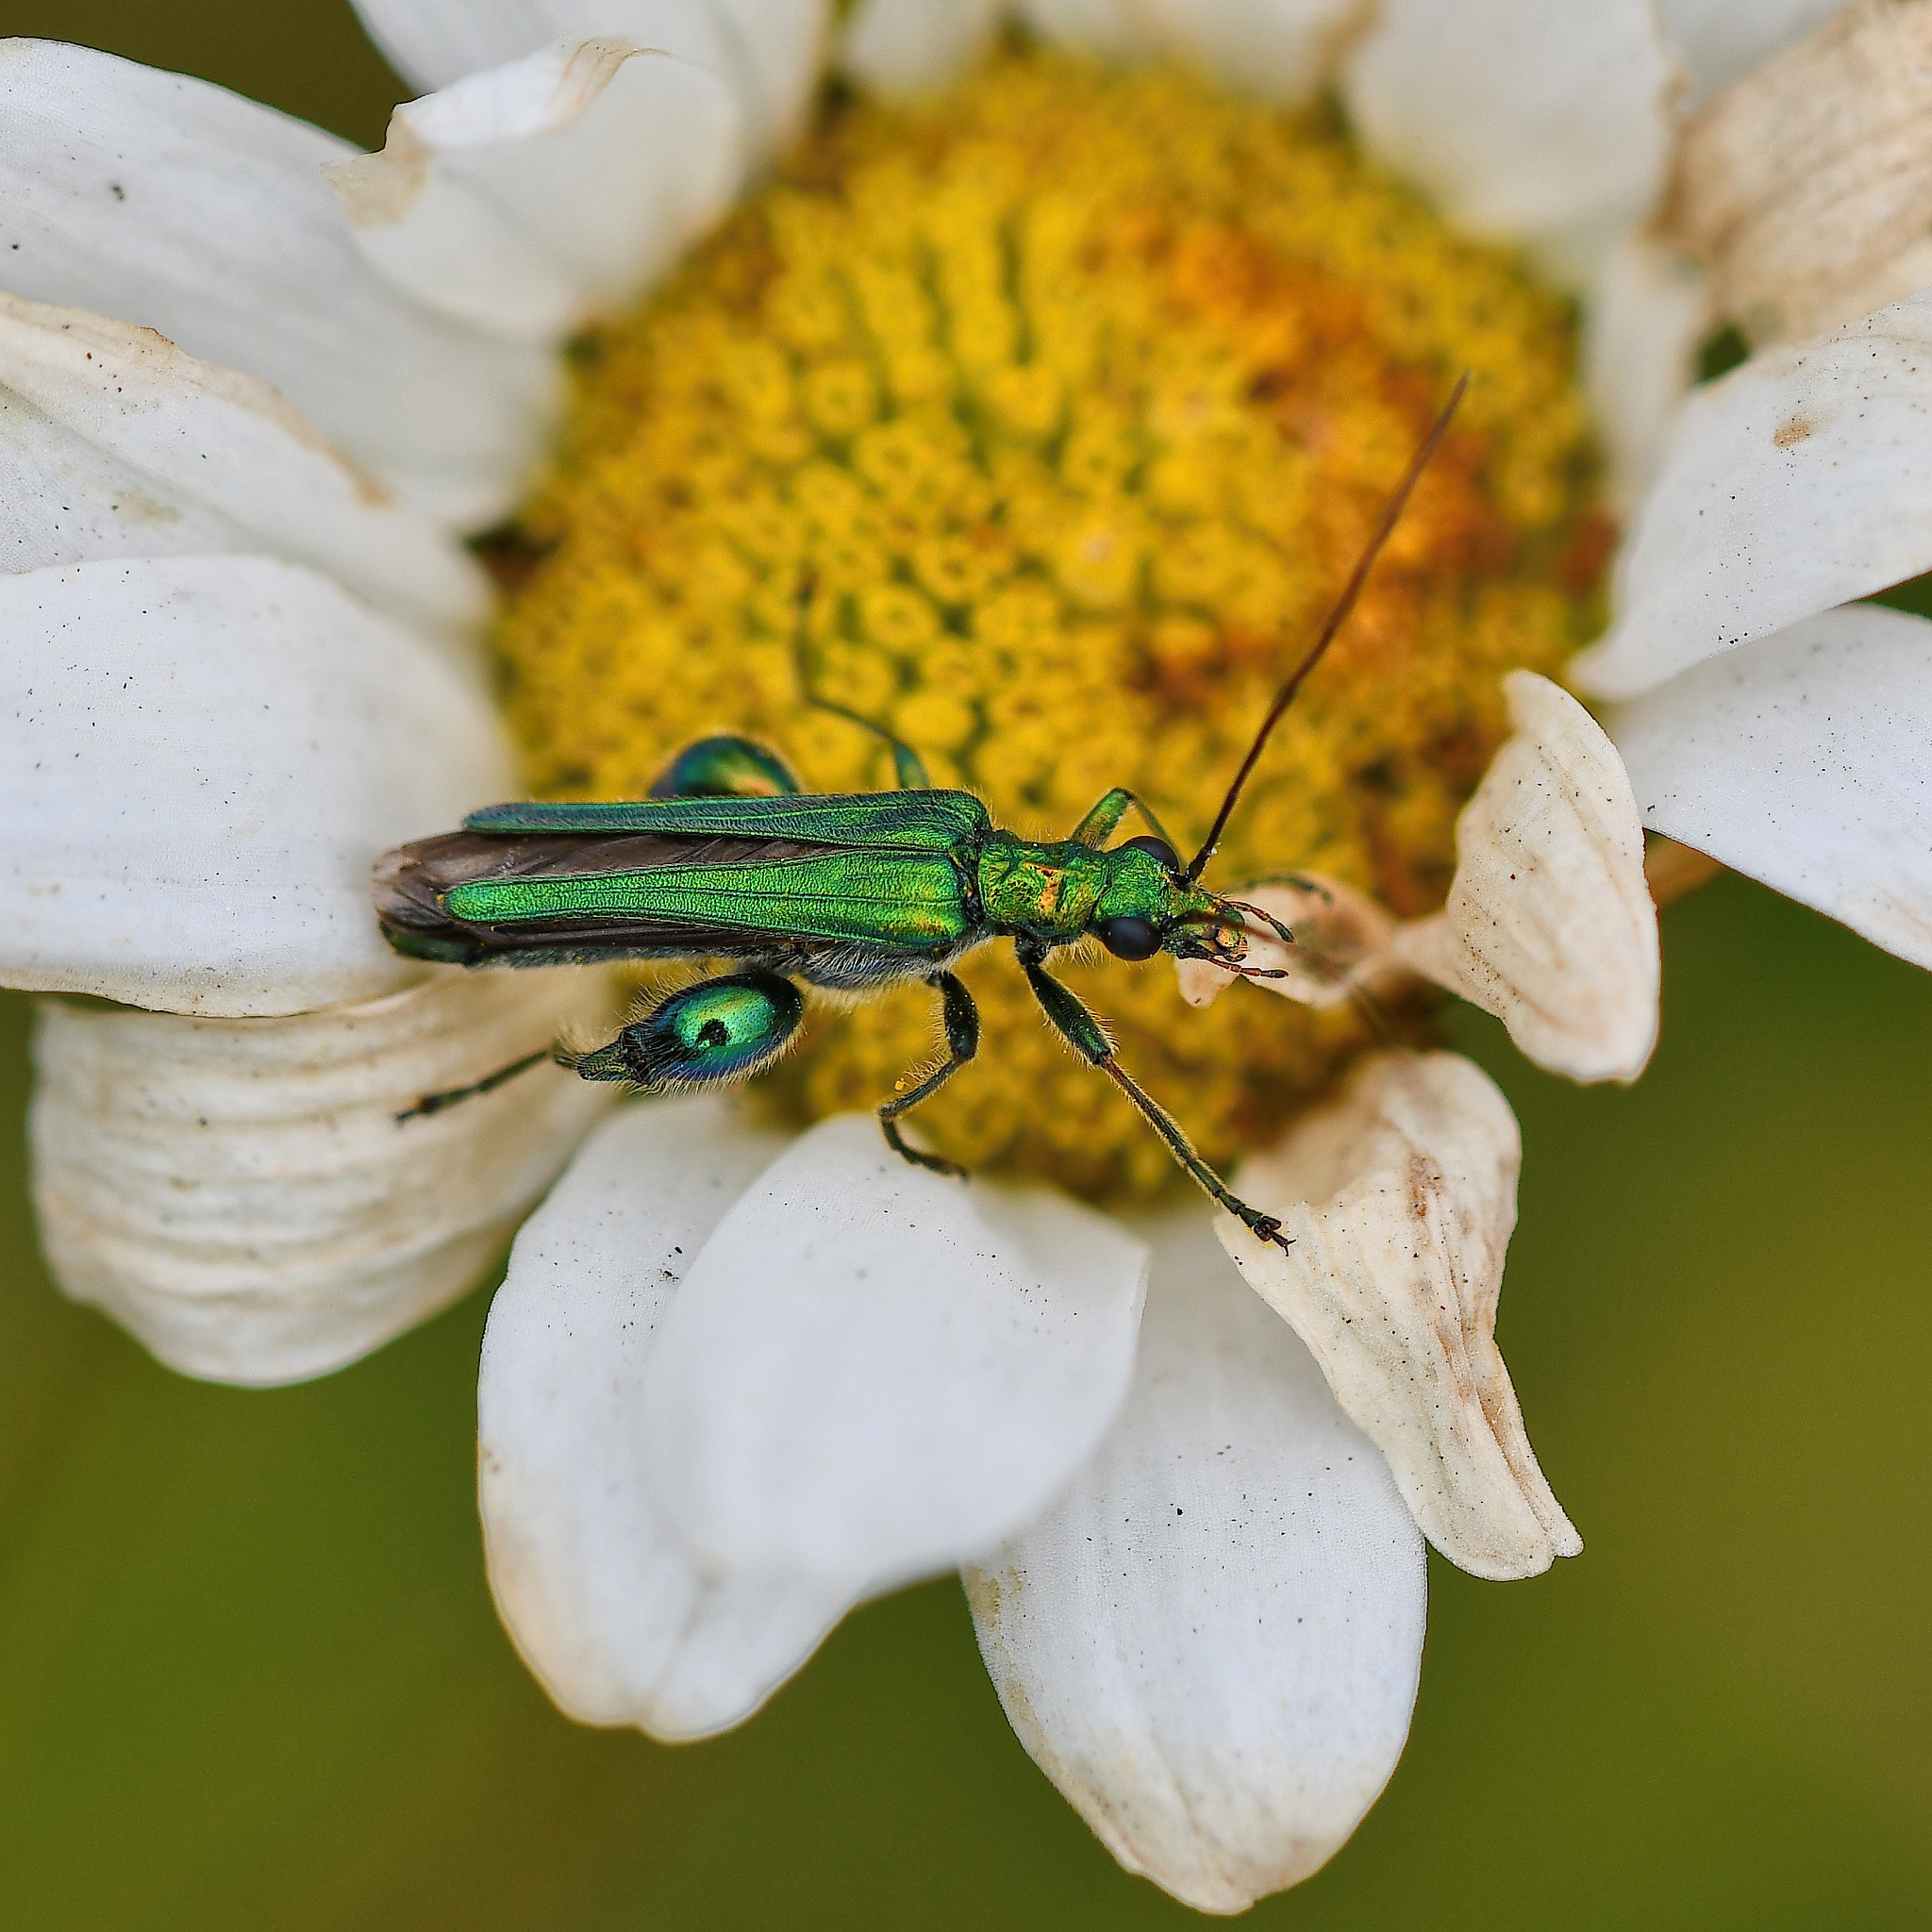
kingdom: Animalia
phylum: Arthropoda
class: Insecta
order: Coleoptera
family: Oedemeridae
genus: Oedemera
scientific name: Oedemera nobilis
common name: Swollen-thighed beetle
